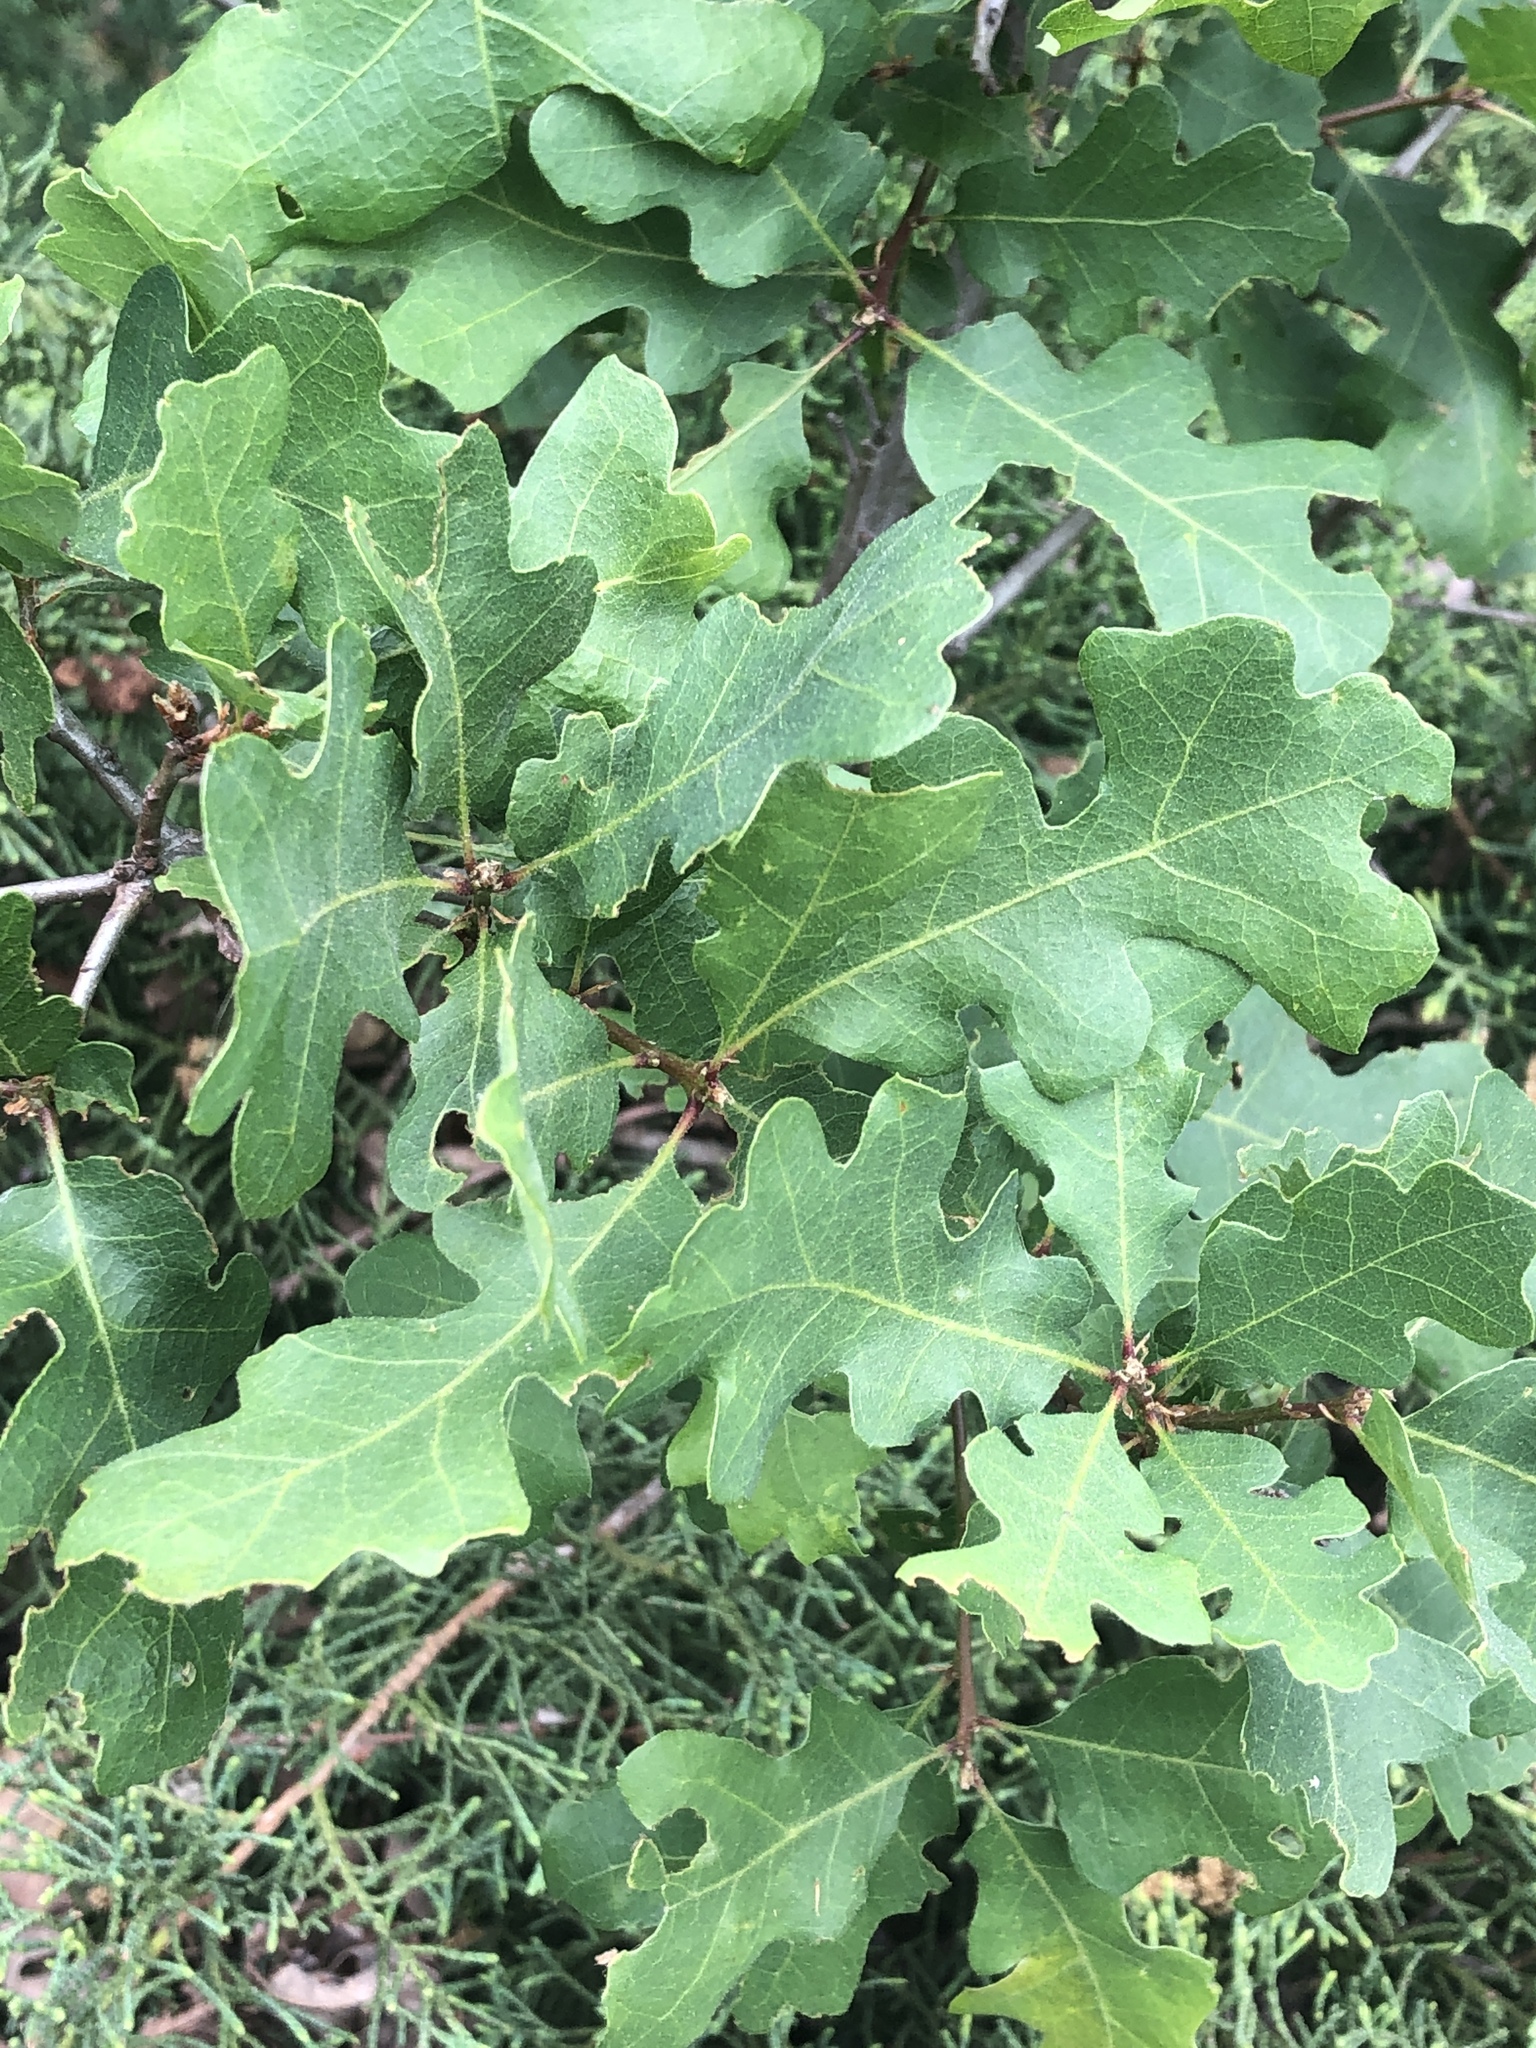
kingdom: Plantae
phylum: Tracheophyta
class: Magnoliopsida
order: Fagales
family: Fagaceae
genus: Quercus
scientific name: Quercus lobata
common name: Valley oak
